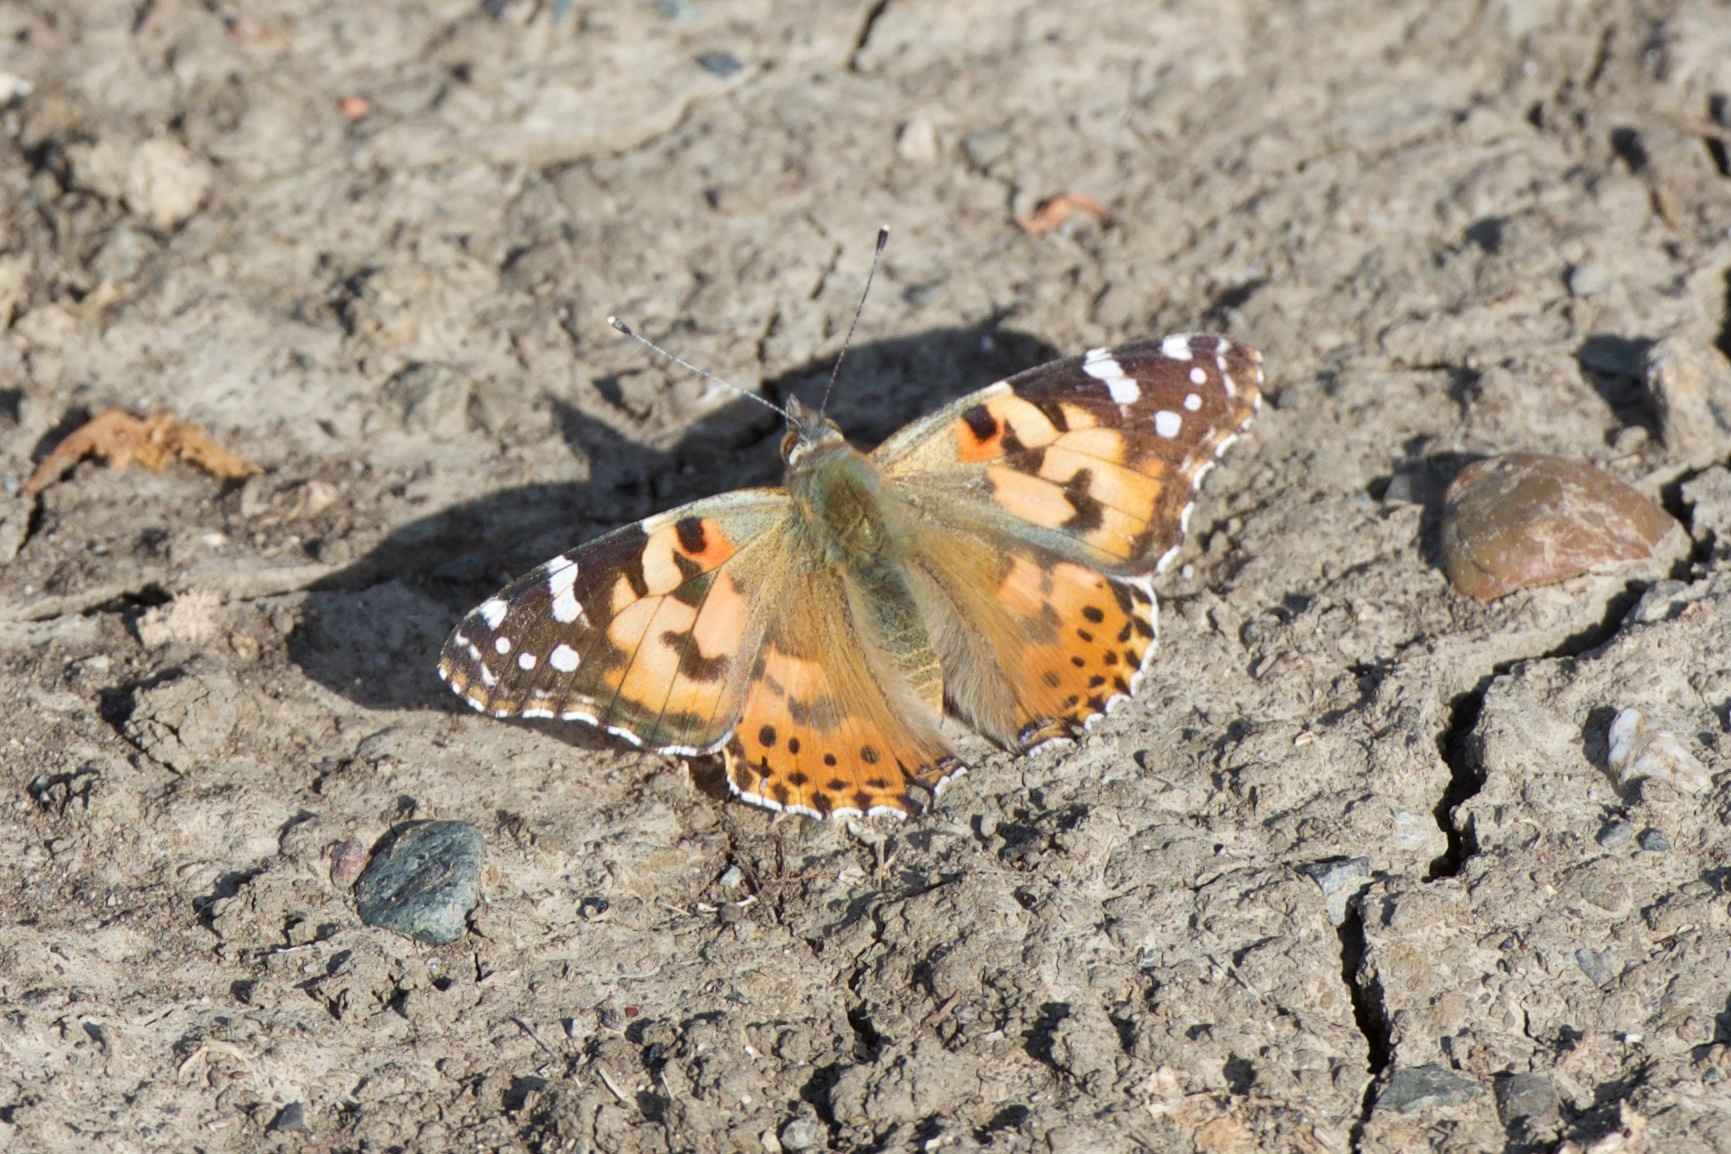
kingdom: Animalia
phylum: Arthropoda
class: Insecta
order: Lepidoptera
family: Nymphalidae
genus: Vanessa
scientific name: Vanessa cardui
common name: Painted lady
